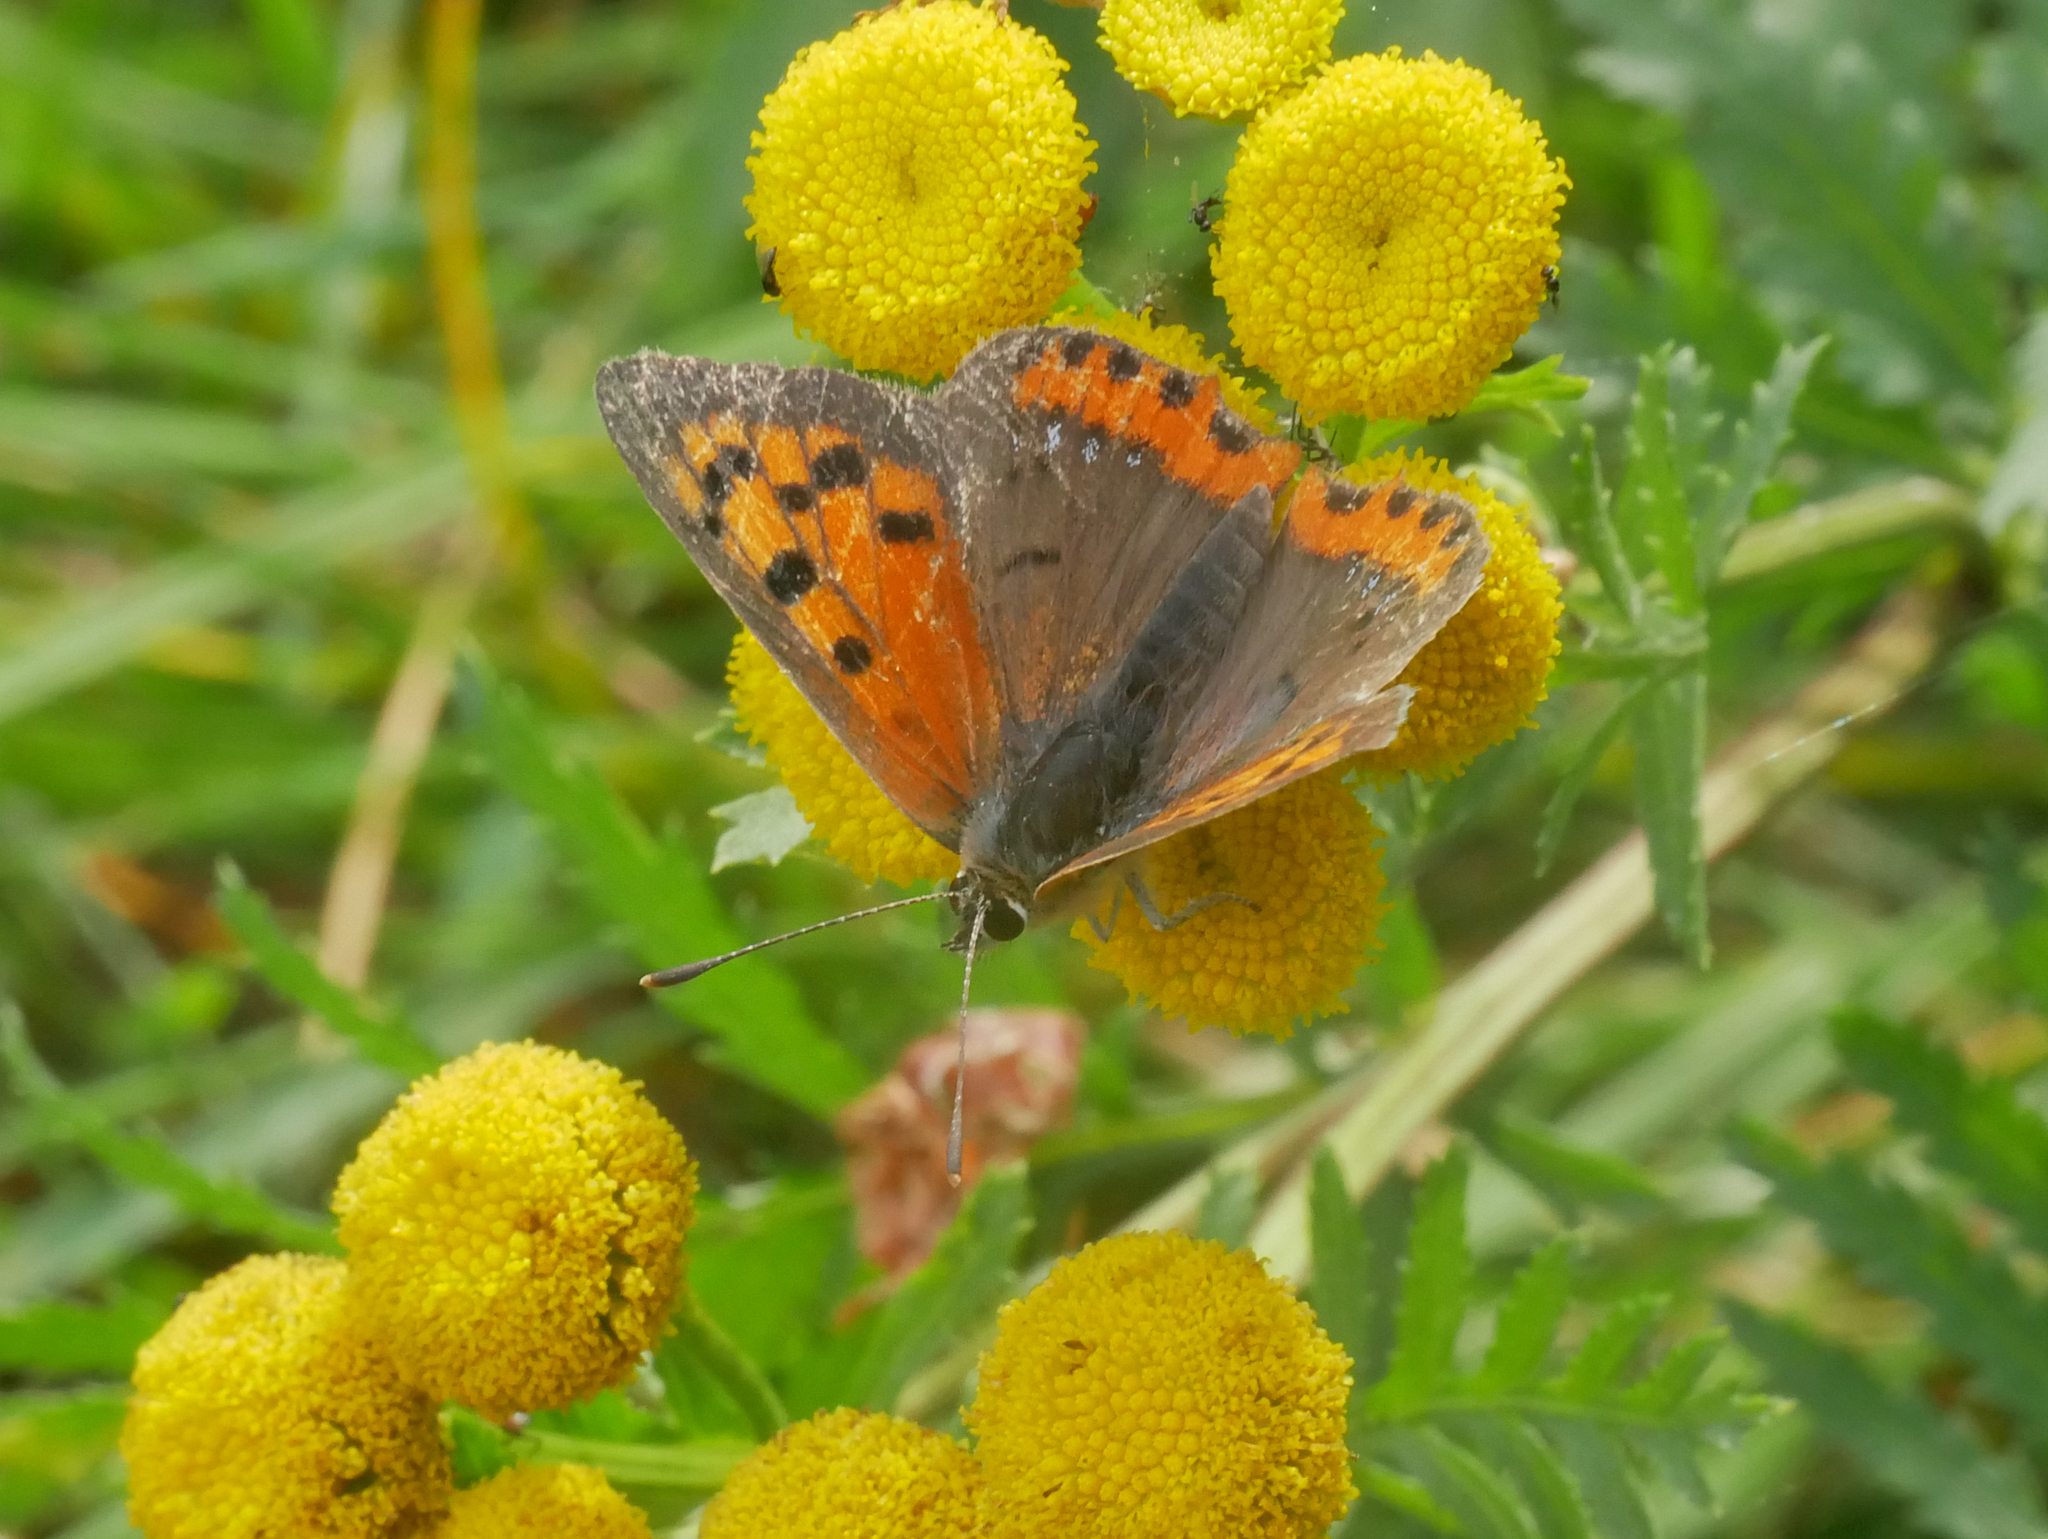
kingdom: Animalia
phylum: Arthropoda
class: Insecta
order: Lepidoptera
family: Lycaenidae
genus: Lycaena
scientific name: Lycaena phlaeas
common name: Small copper
